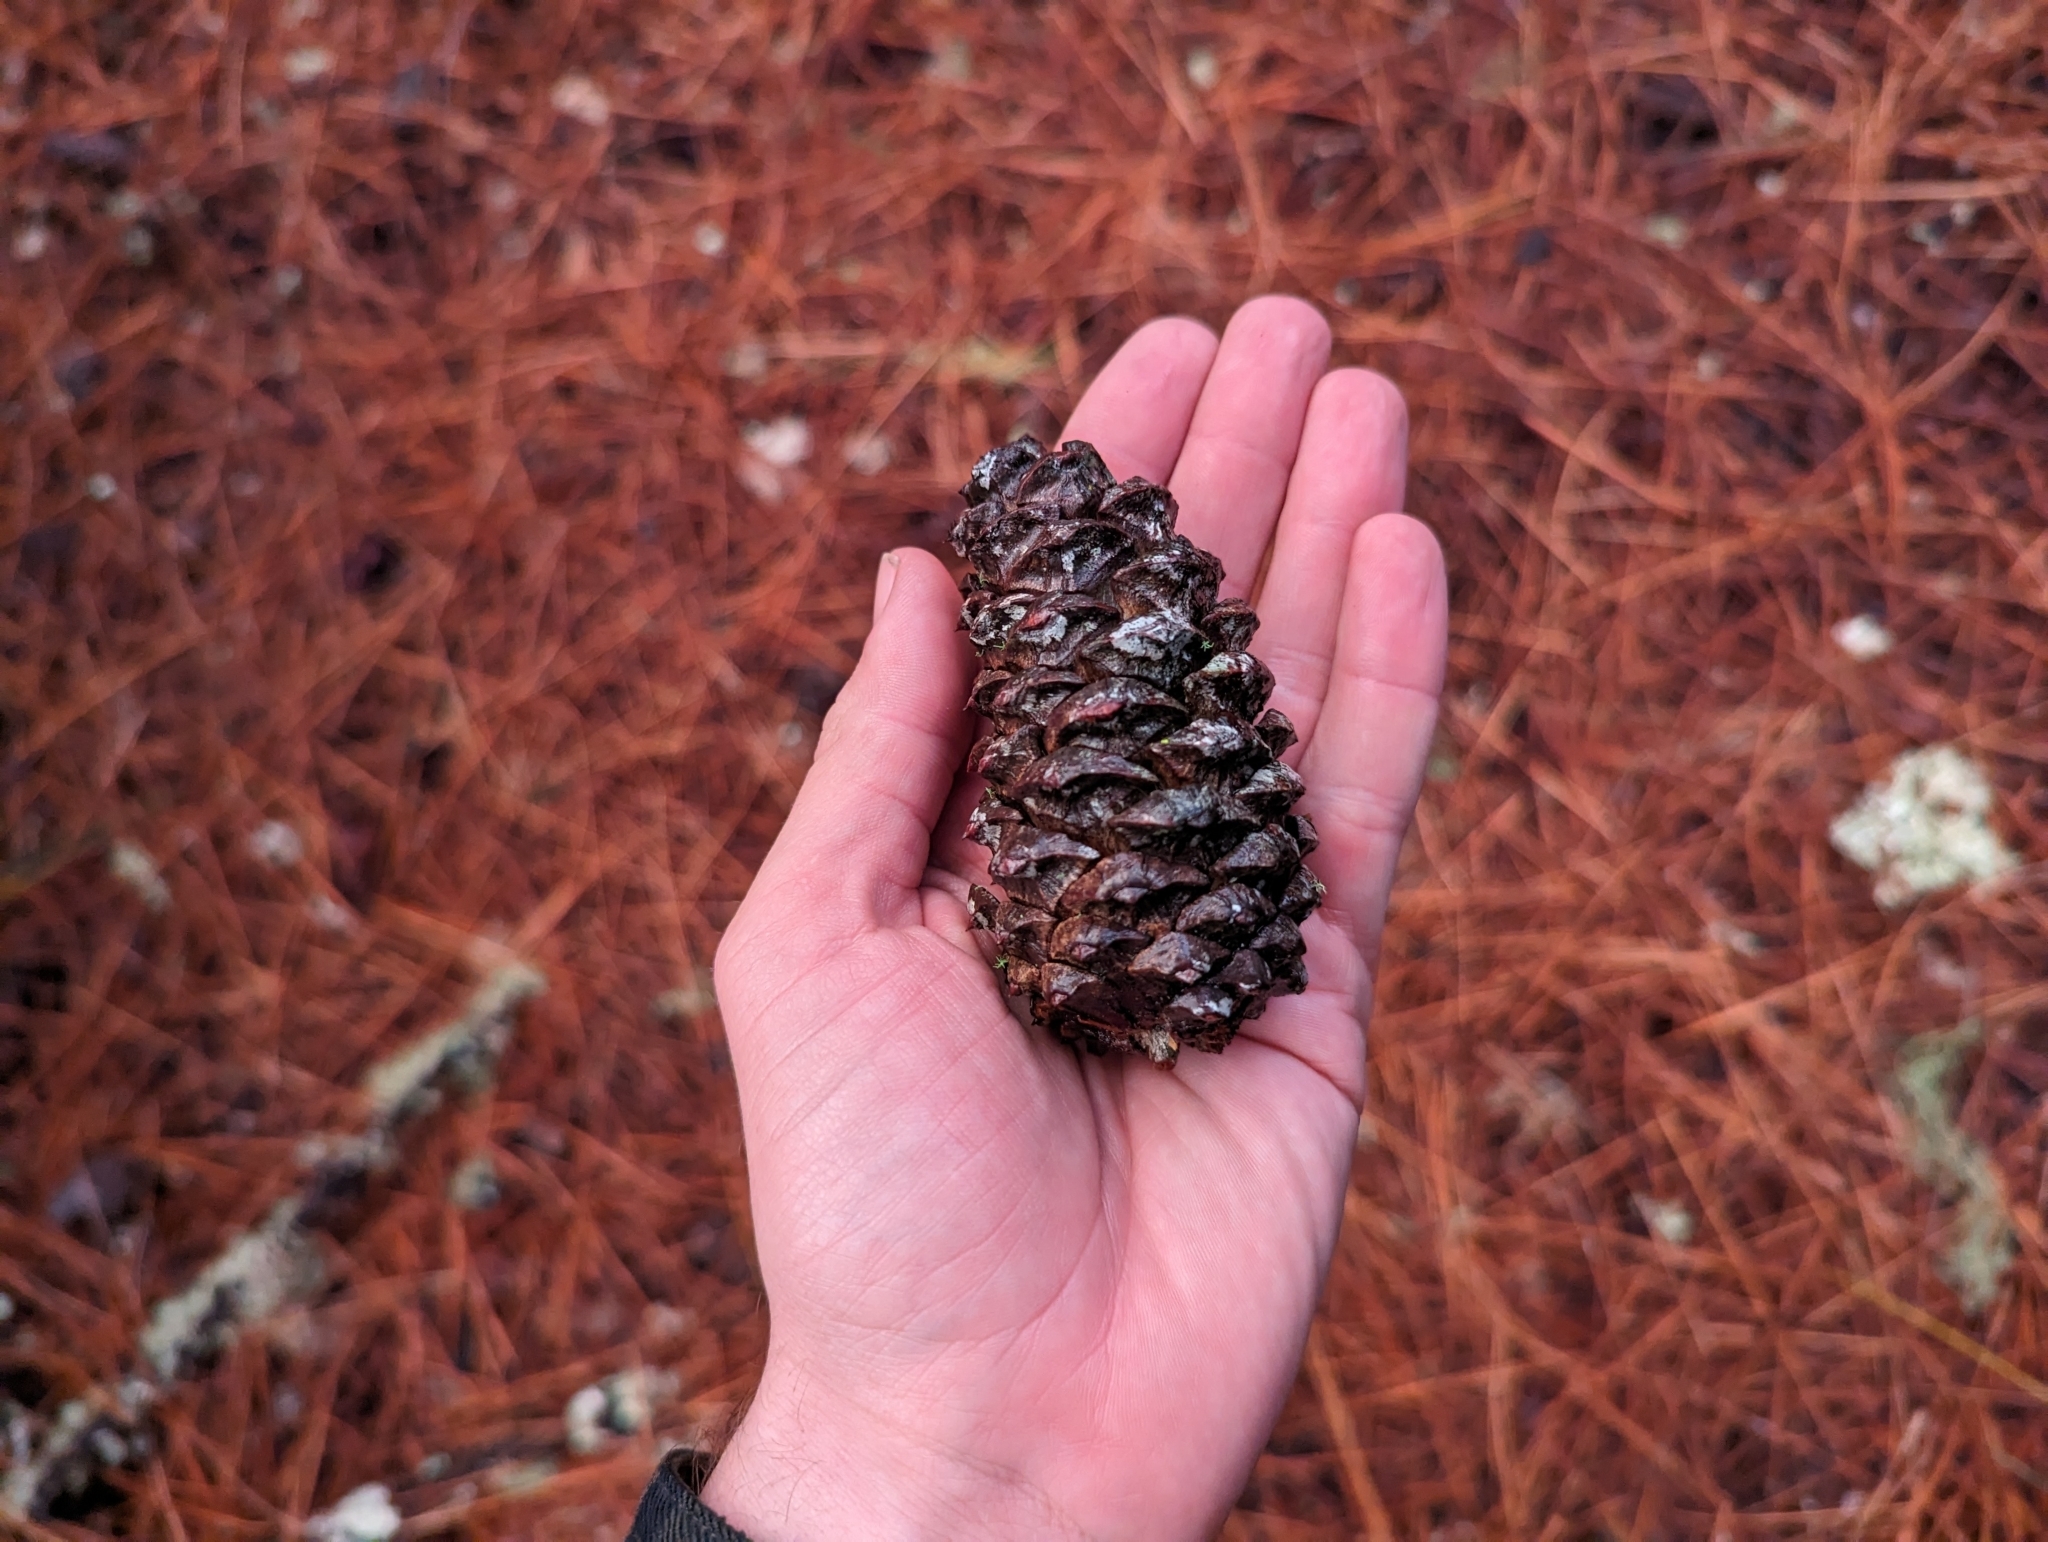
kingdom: Plantae
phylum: Tracheophyta
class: Pinopsida
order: Pinales
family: Pinaceae
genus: Pinus
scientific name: Pinus ponderosa
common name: Western yellow-pine
